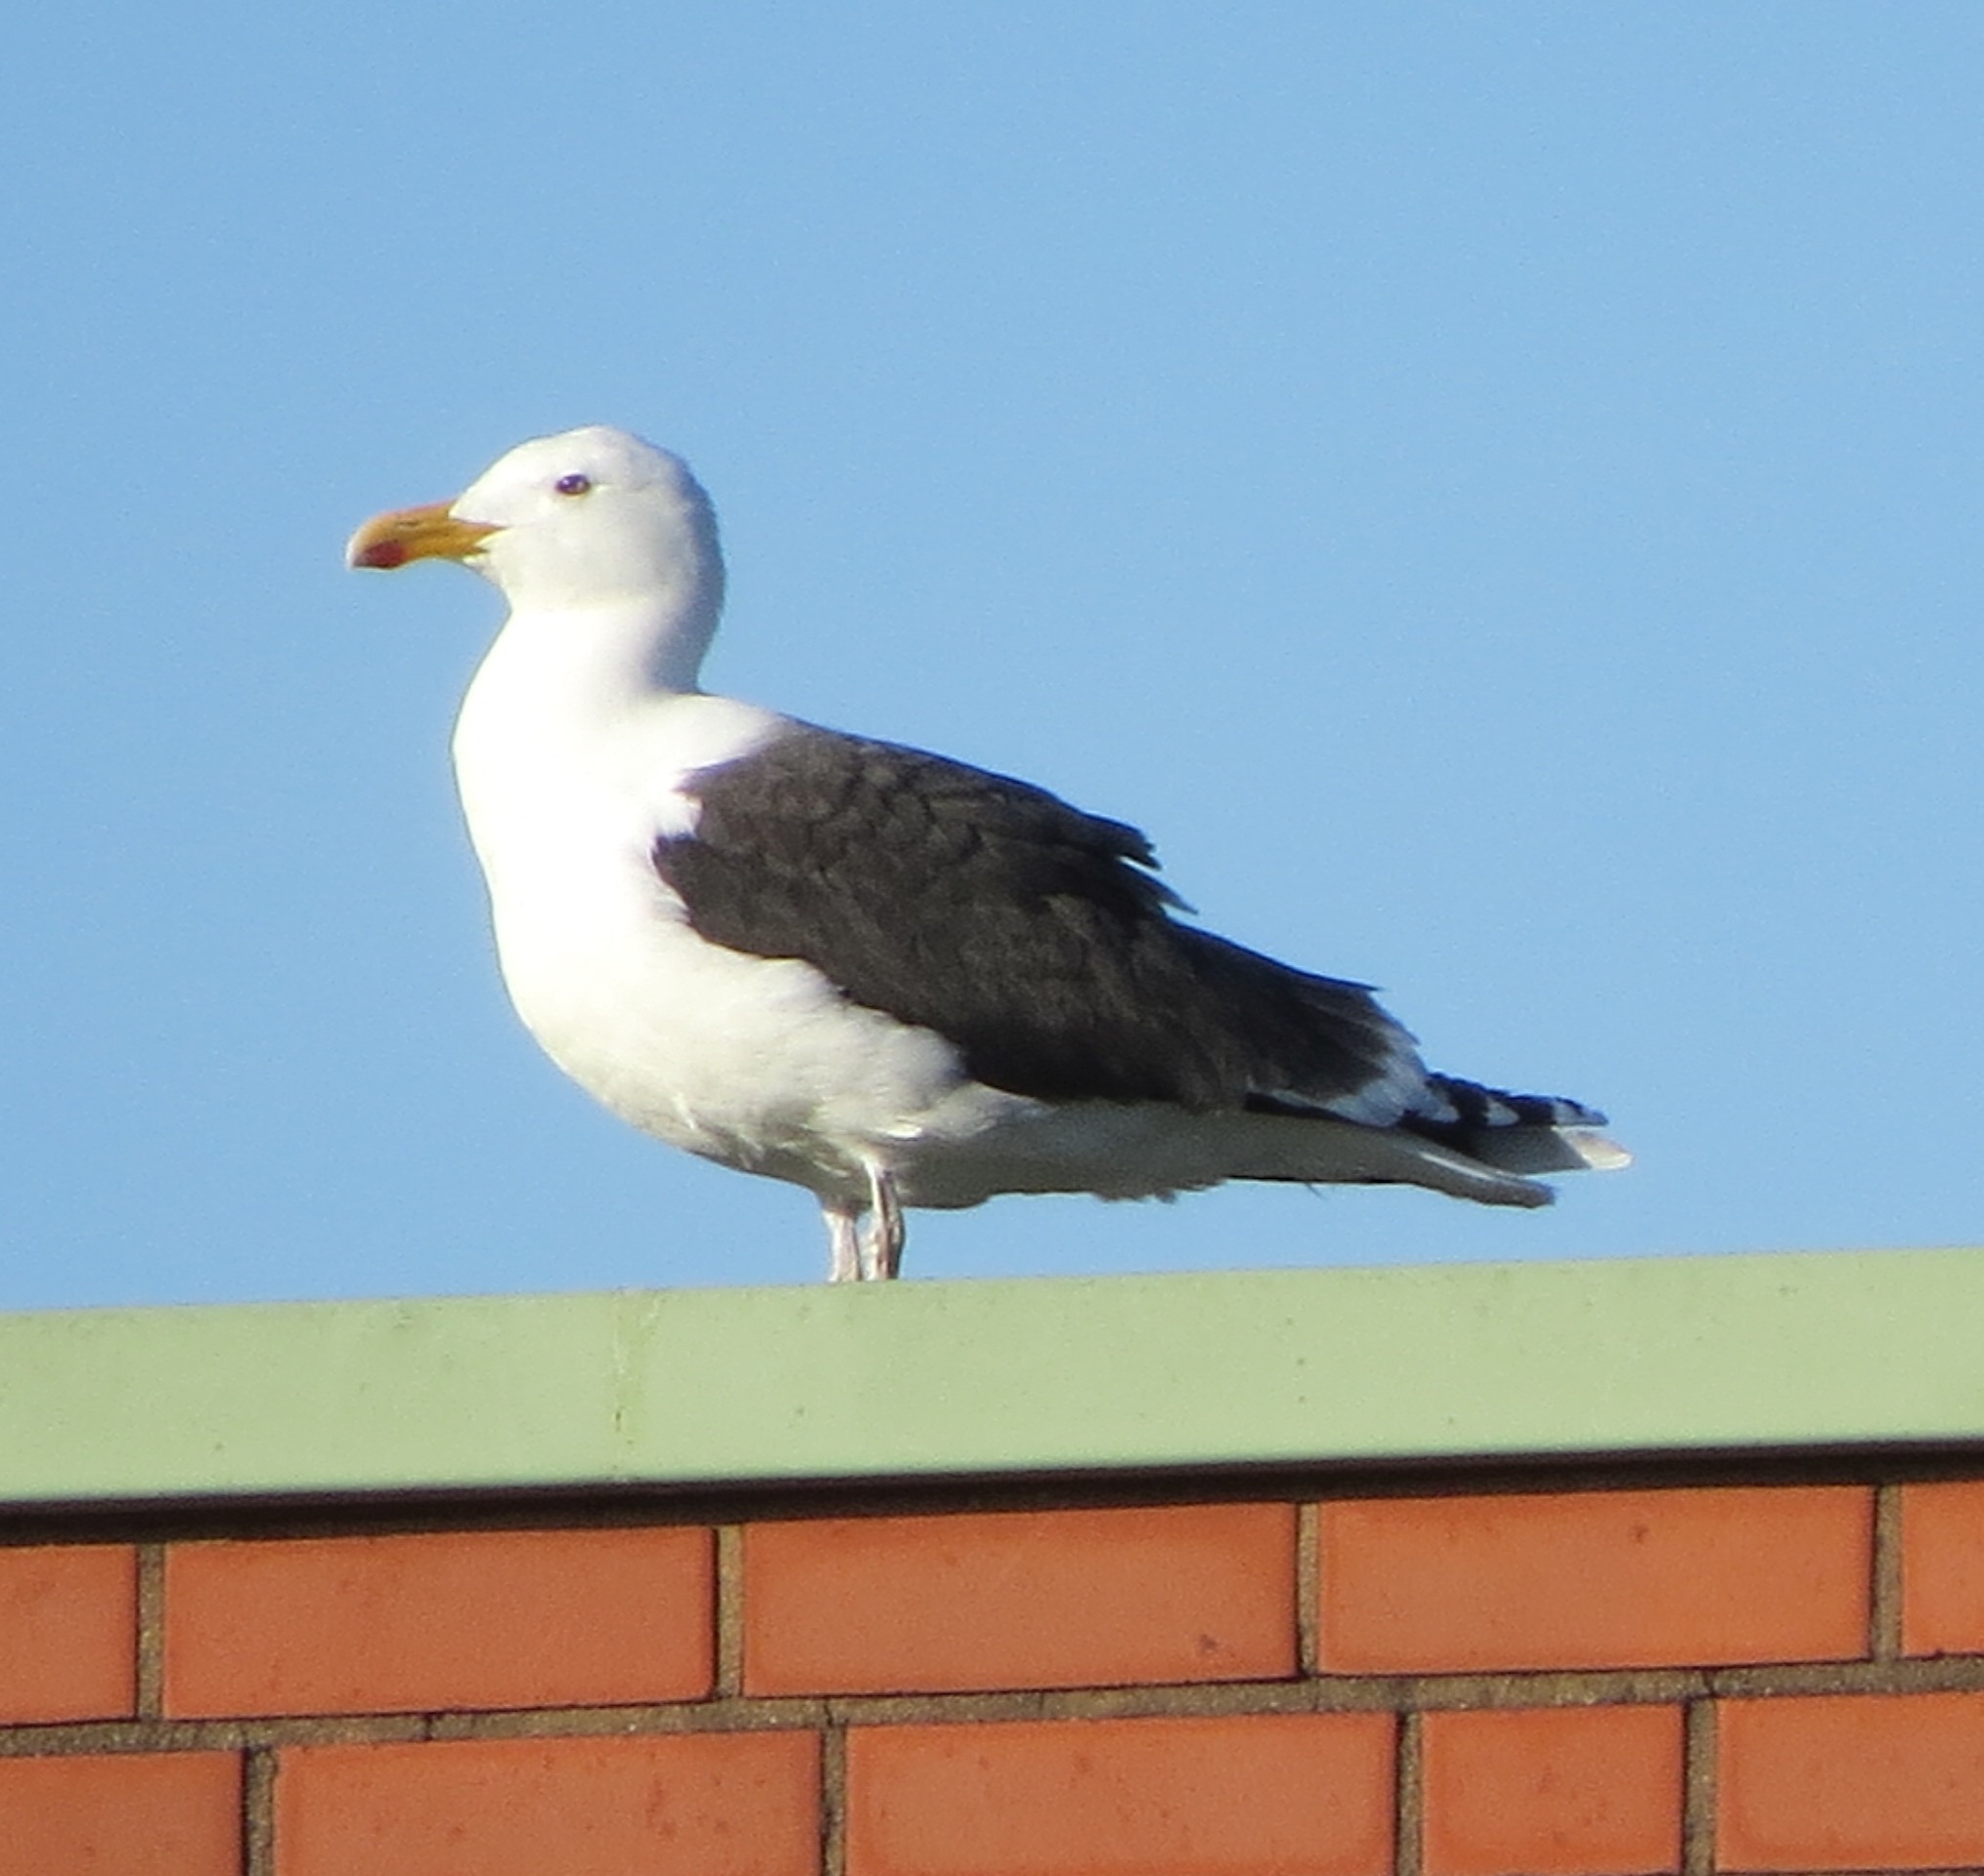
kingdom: Animalia
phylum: Chordata
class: Aves
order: Charadriiformes
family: Laridae
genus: Larus
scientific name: Larus marinus
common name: Great black-backed gull
